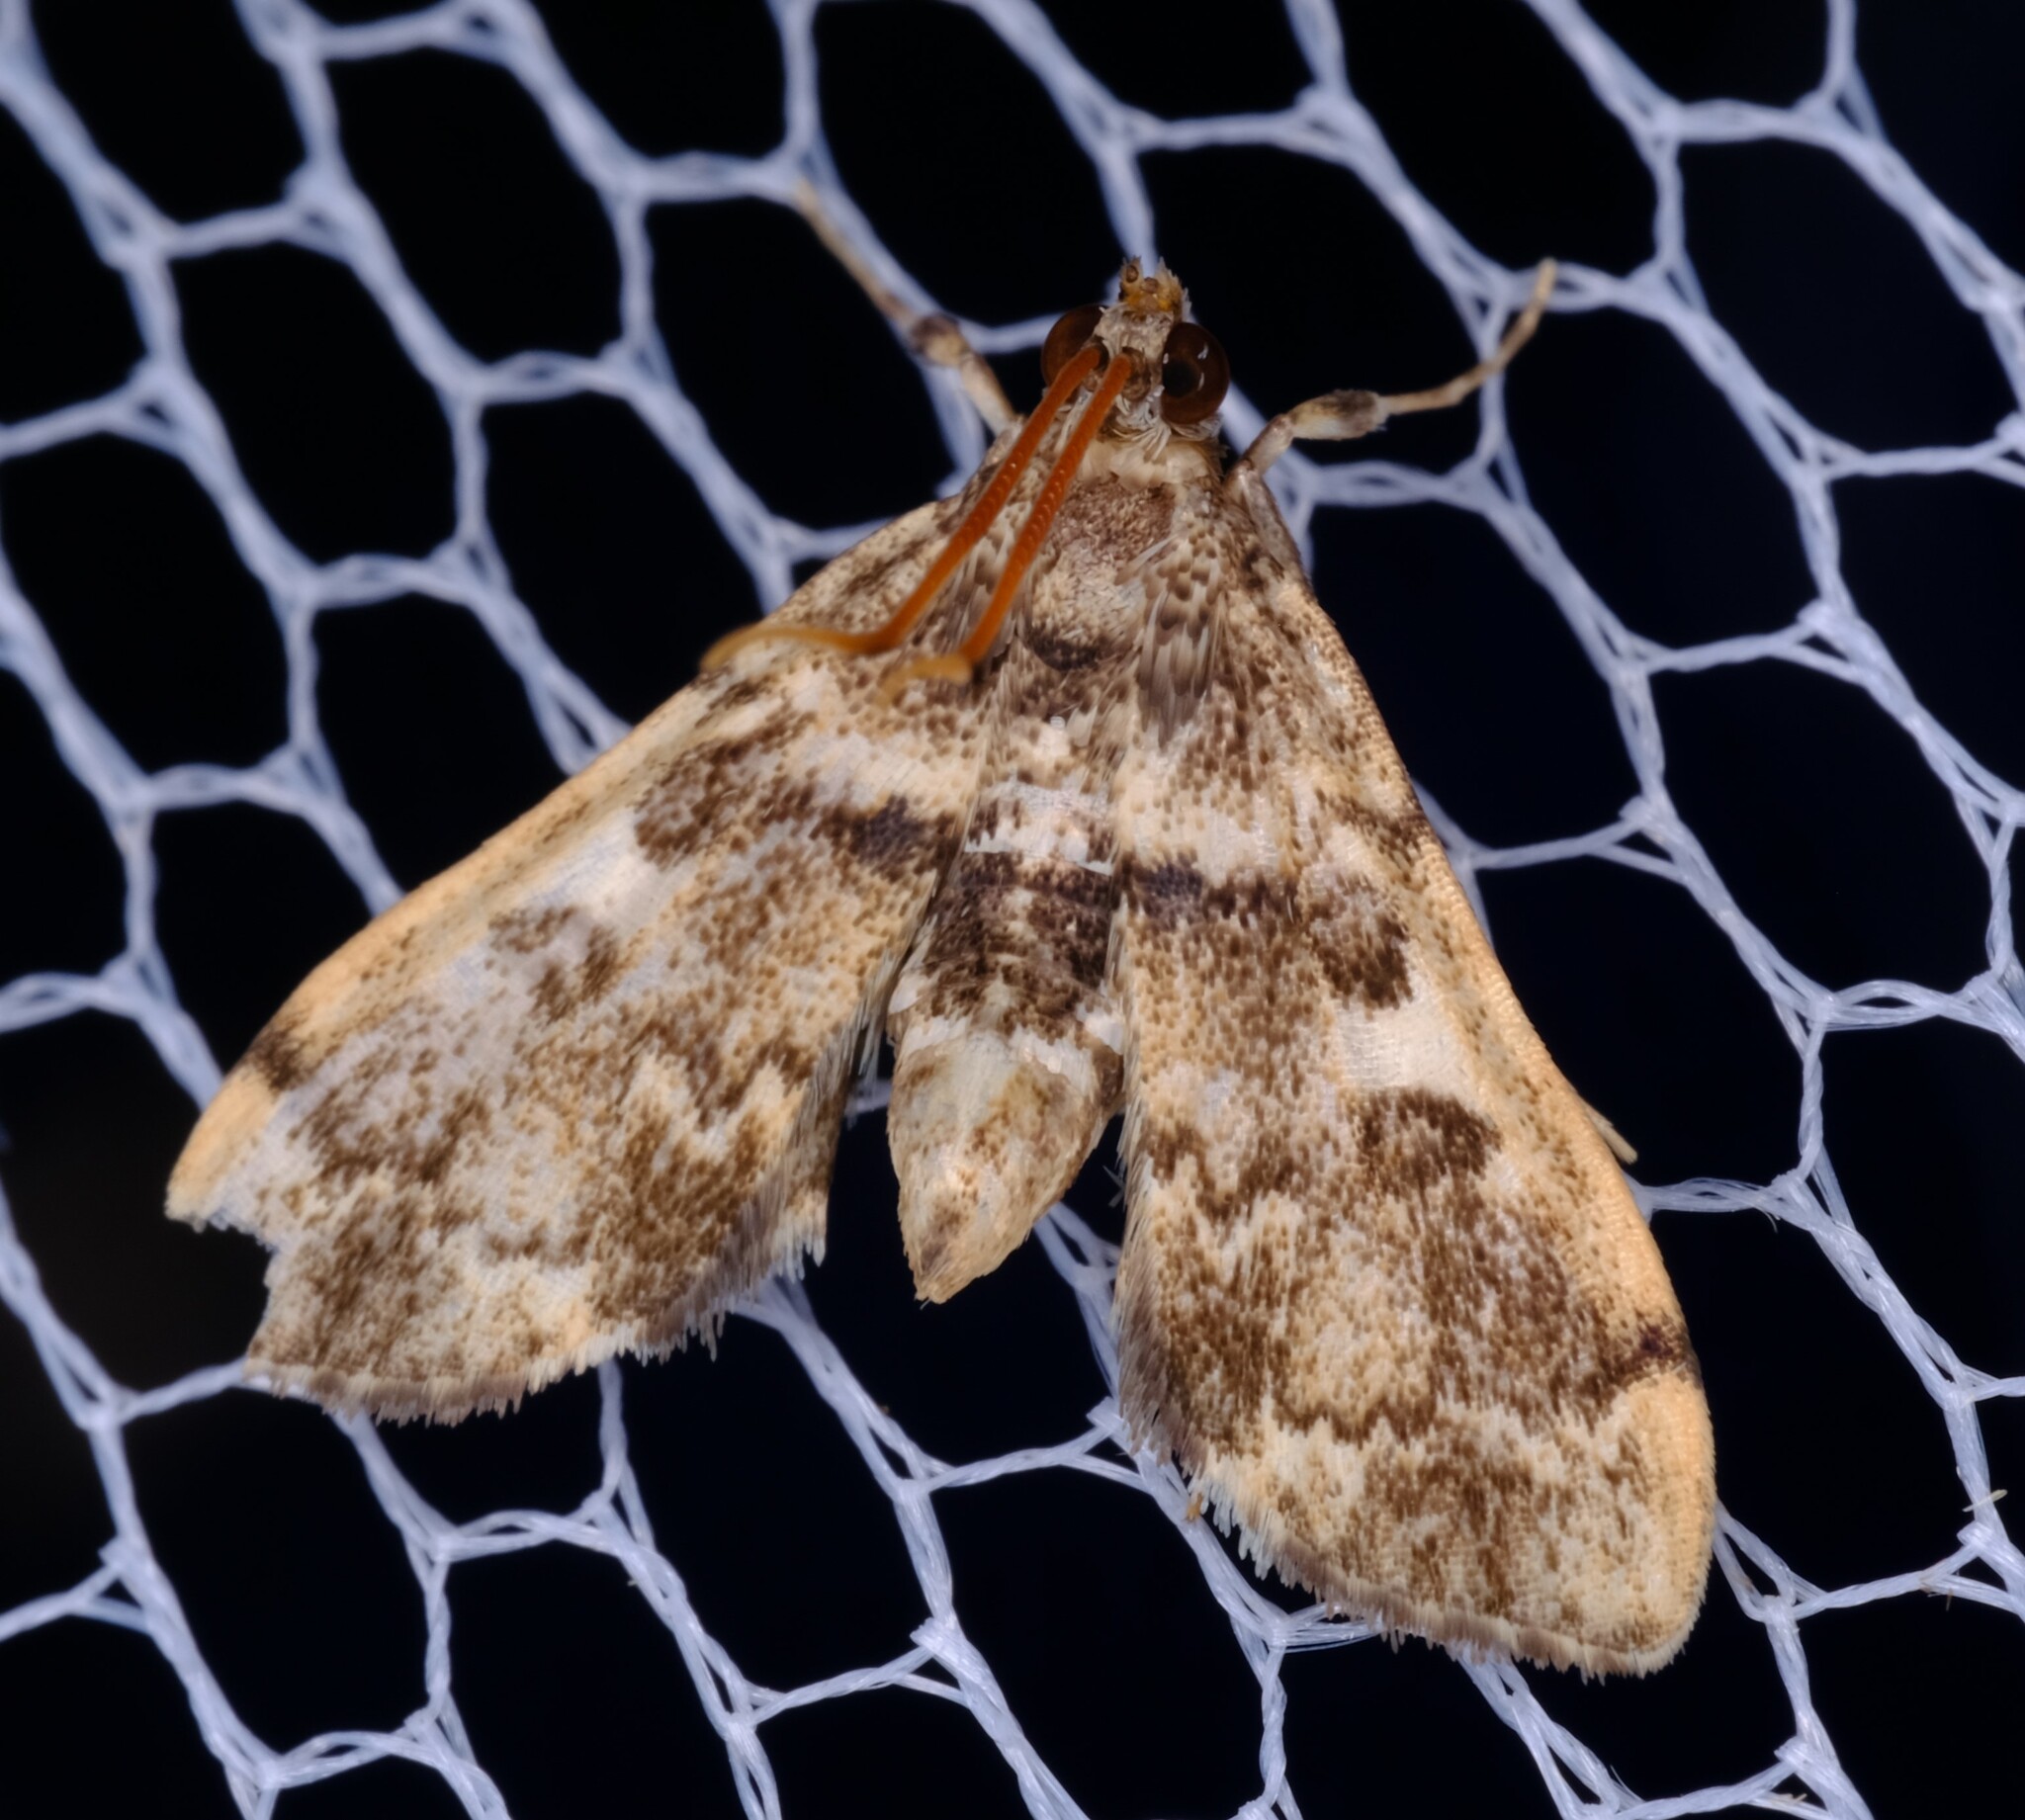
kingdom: Animalia
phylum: Arthropoda
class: Insecta
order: Lepidoptera
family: Crambidae
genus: Nacoleia
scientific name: Nacoleia oncophragma
